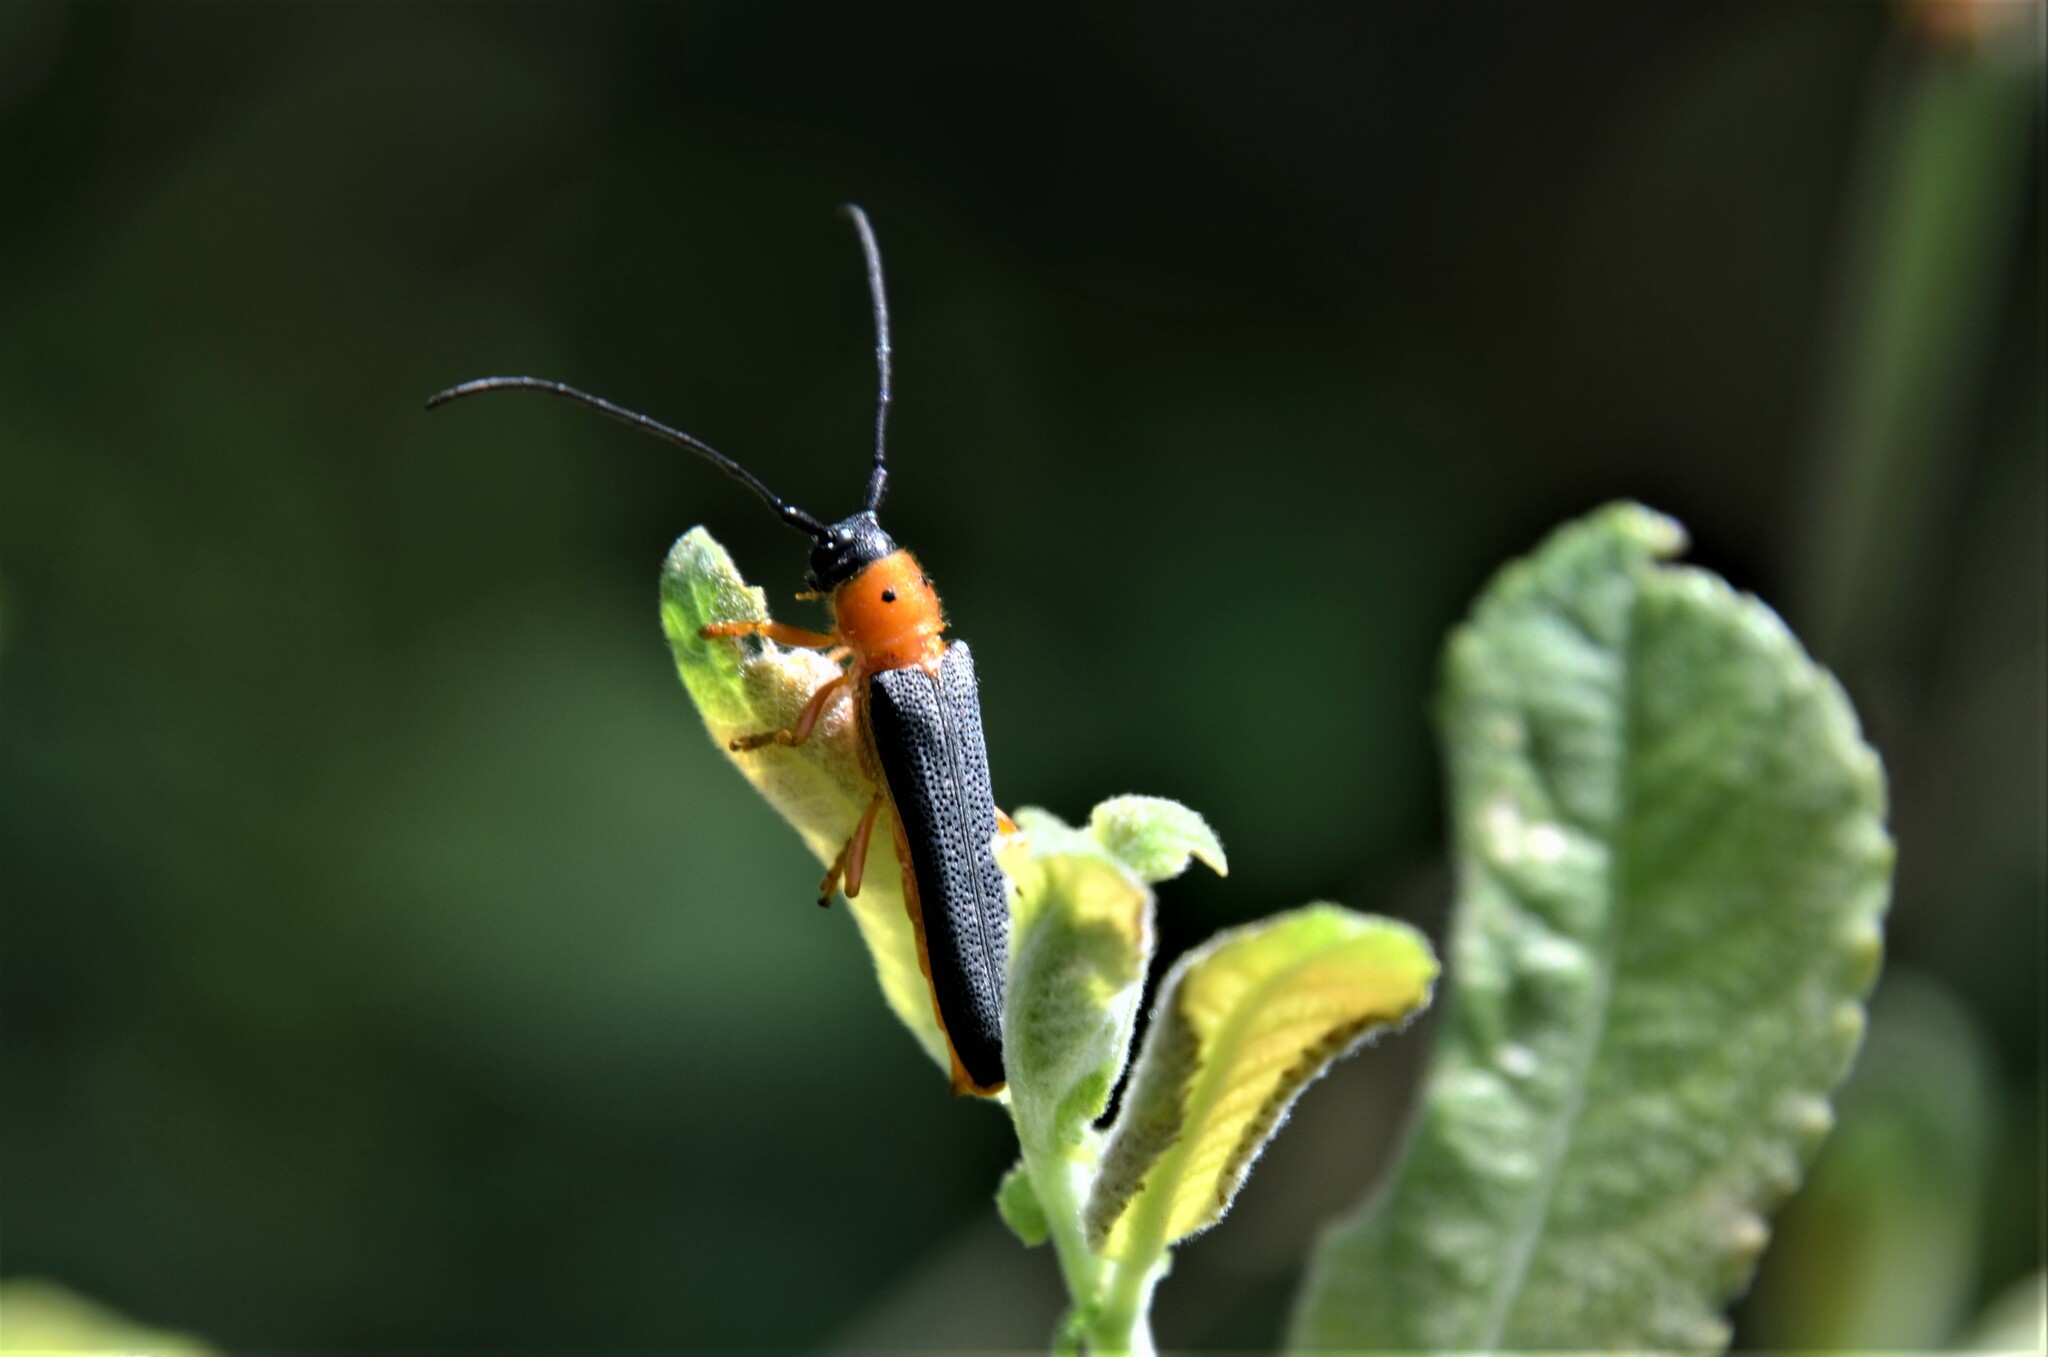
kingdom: Animalia
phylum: Arthropoda
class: Insecta
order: Coleoptera
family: Cerambycidae
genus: Oberea
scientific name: Oberea oculata
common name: Eyed longhorn beetle
